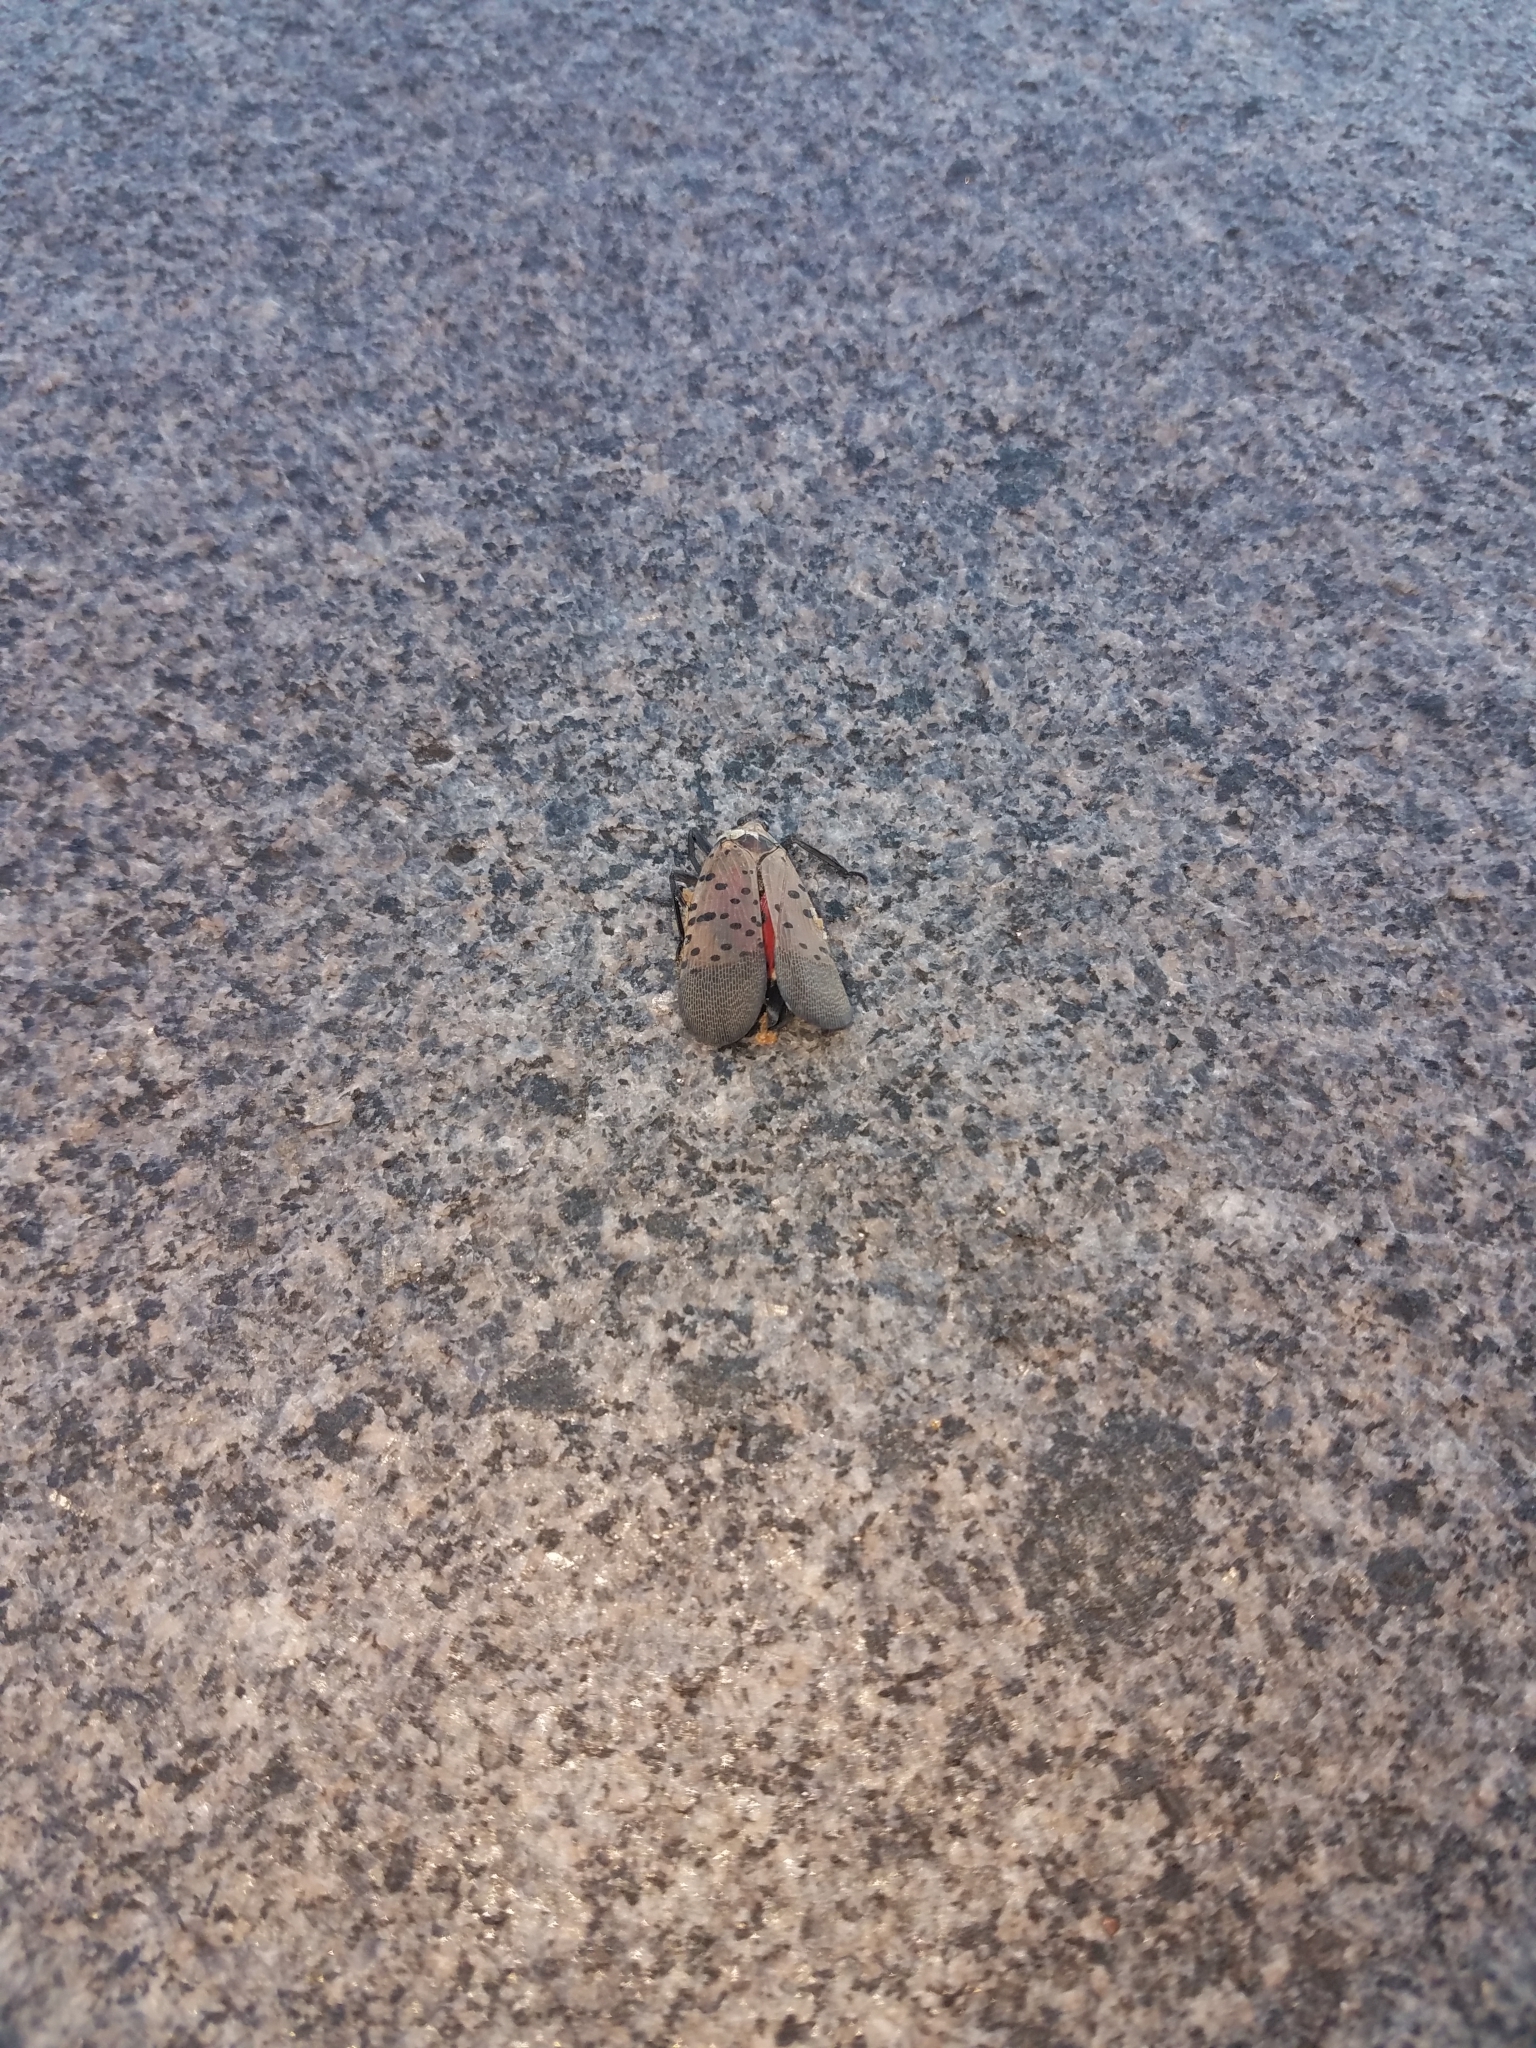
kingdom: Animalia
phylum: Arthropoda
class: Insecta
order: Hemiptera
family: Fulgoridae
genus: Lycorma
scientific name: Lycorma delicatula
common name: Spotted lanternfly
